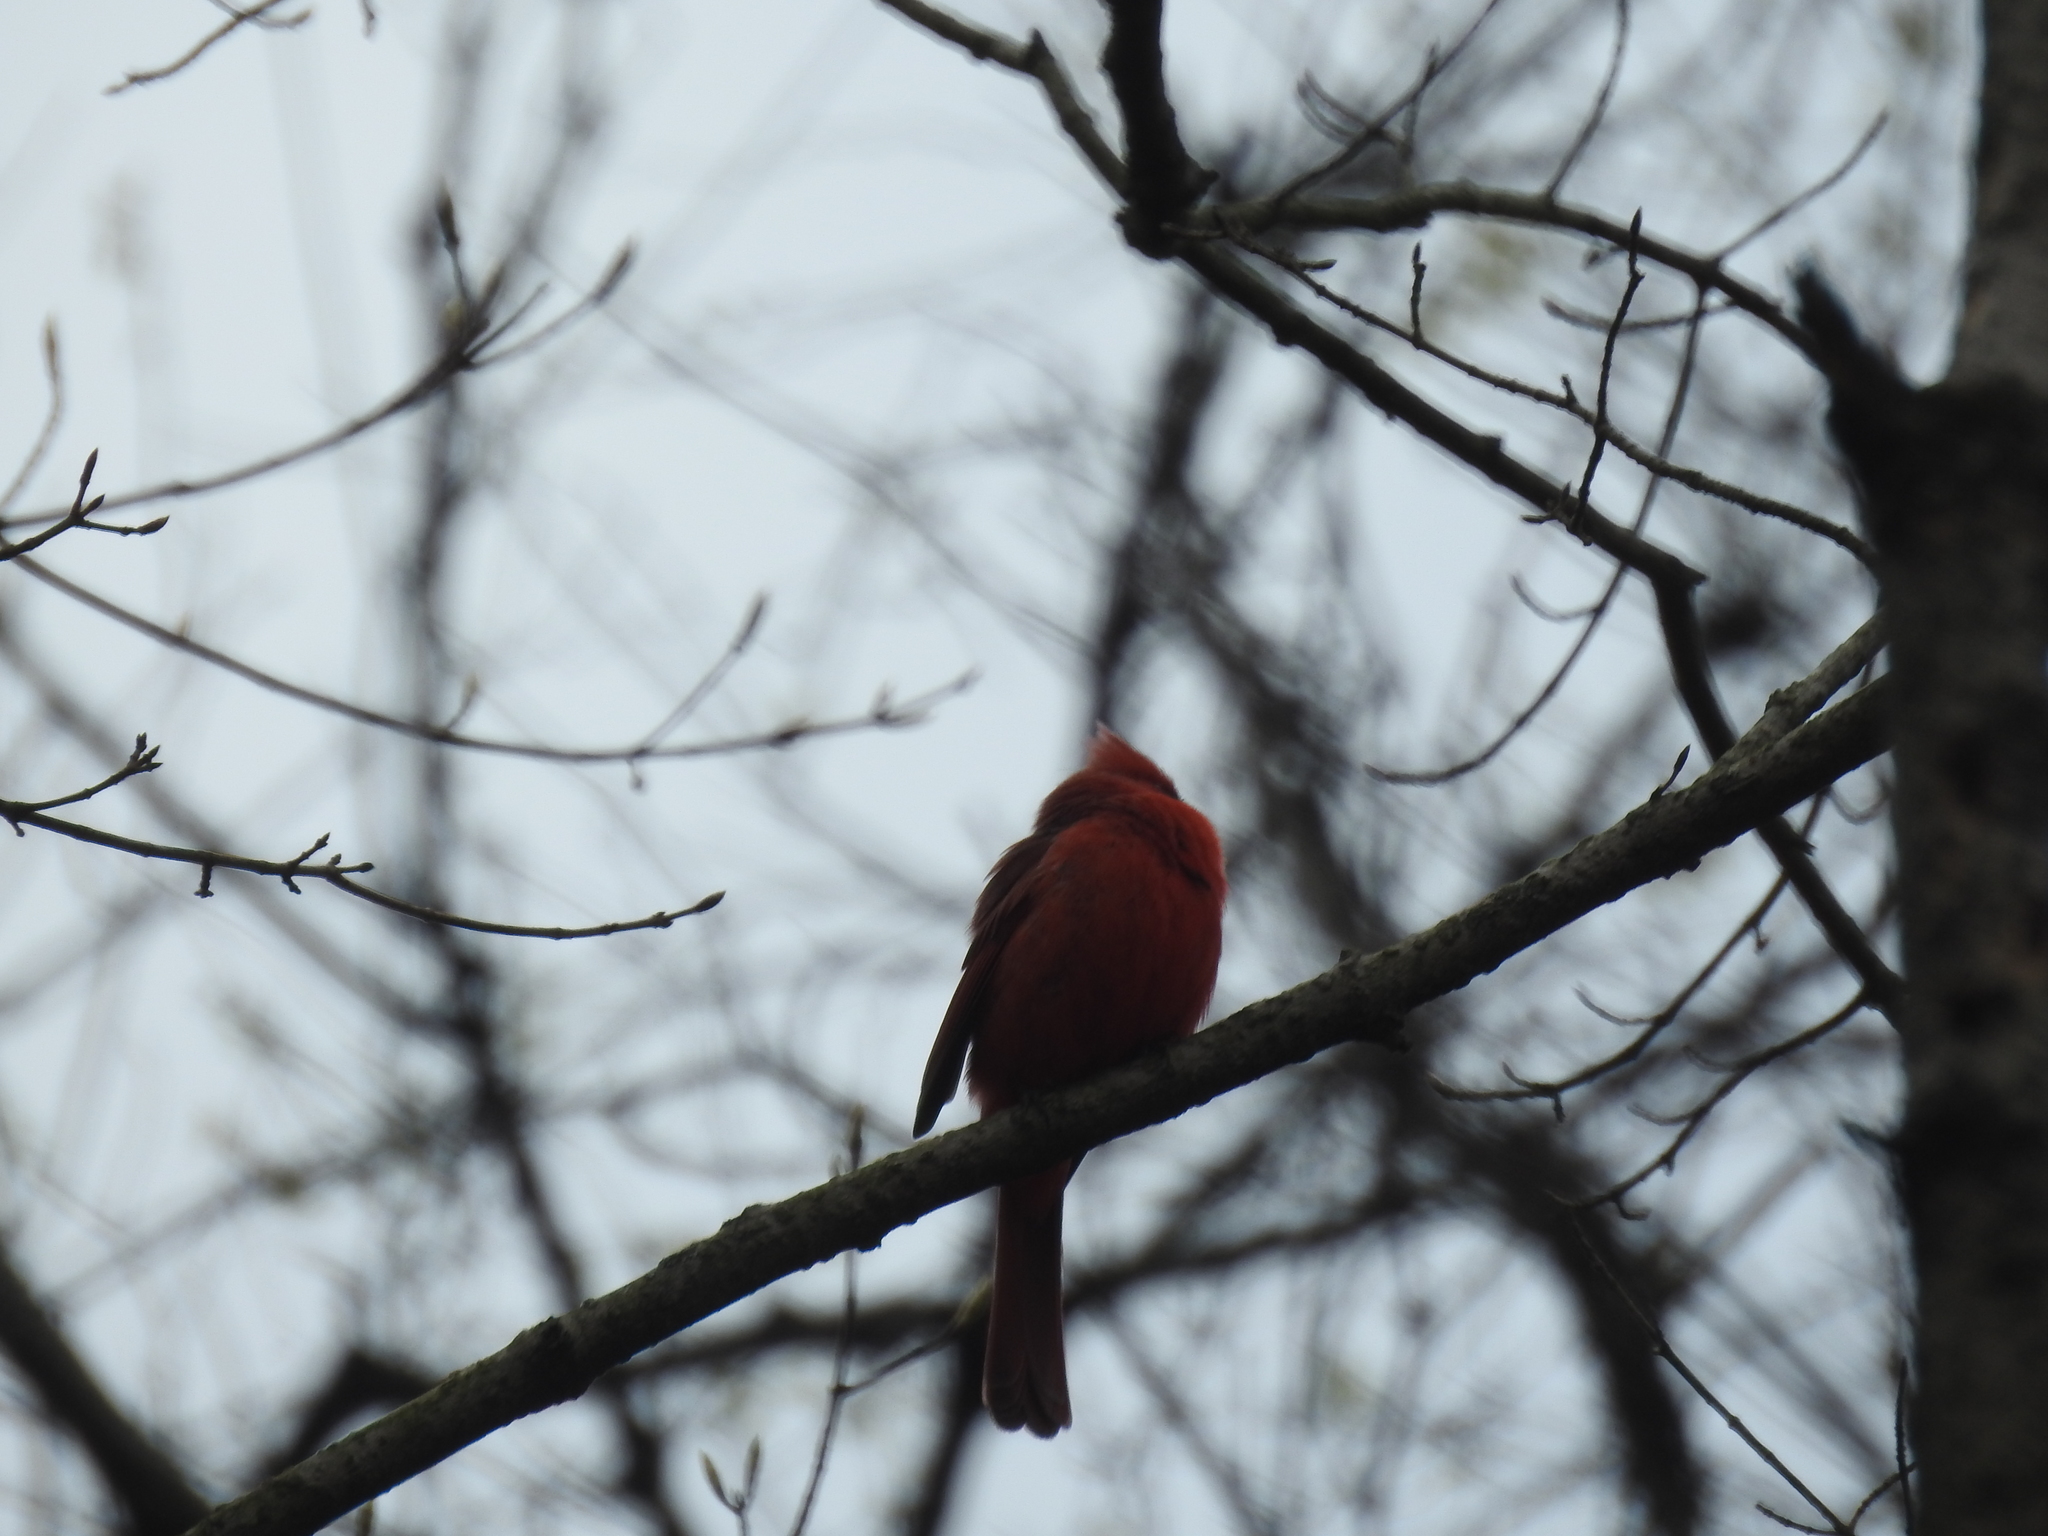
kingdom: Animalia
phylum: Chordata
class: Aves
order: Passeriformes
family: Cardinalidae
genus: Cardinalis
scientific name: Cardinalis cardinalis
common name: Northern cardinal
